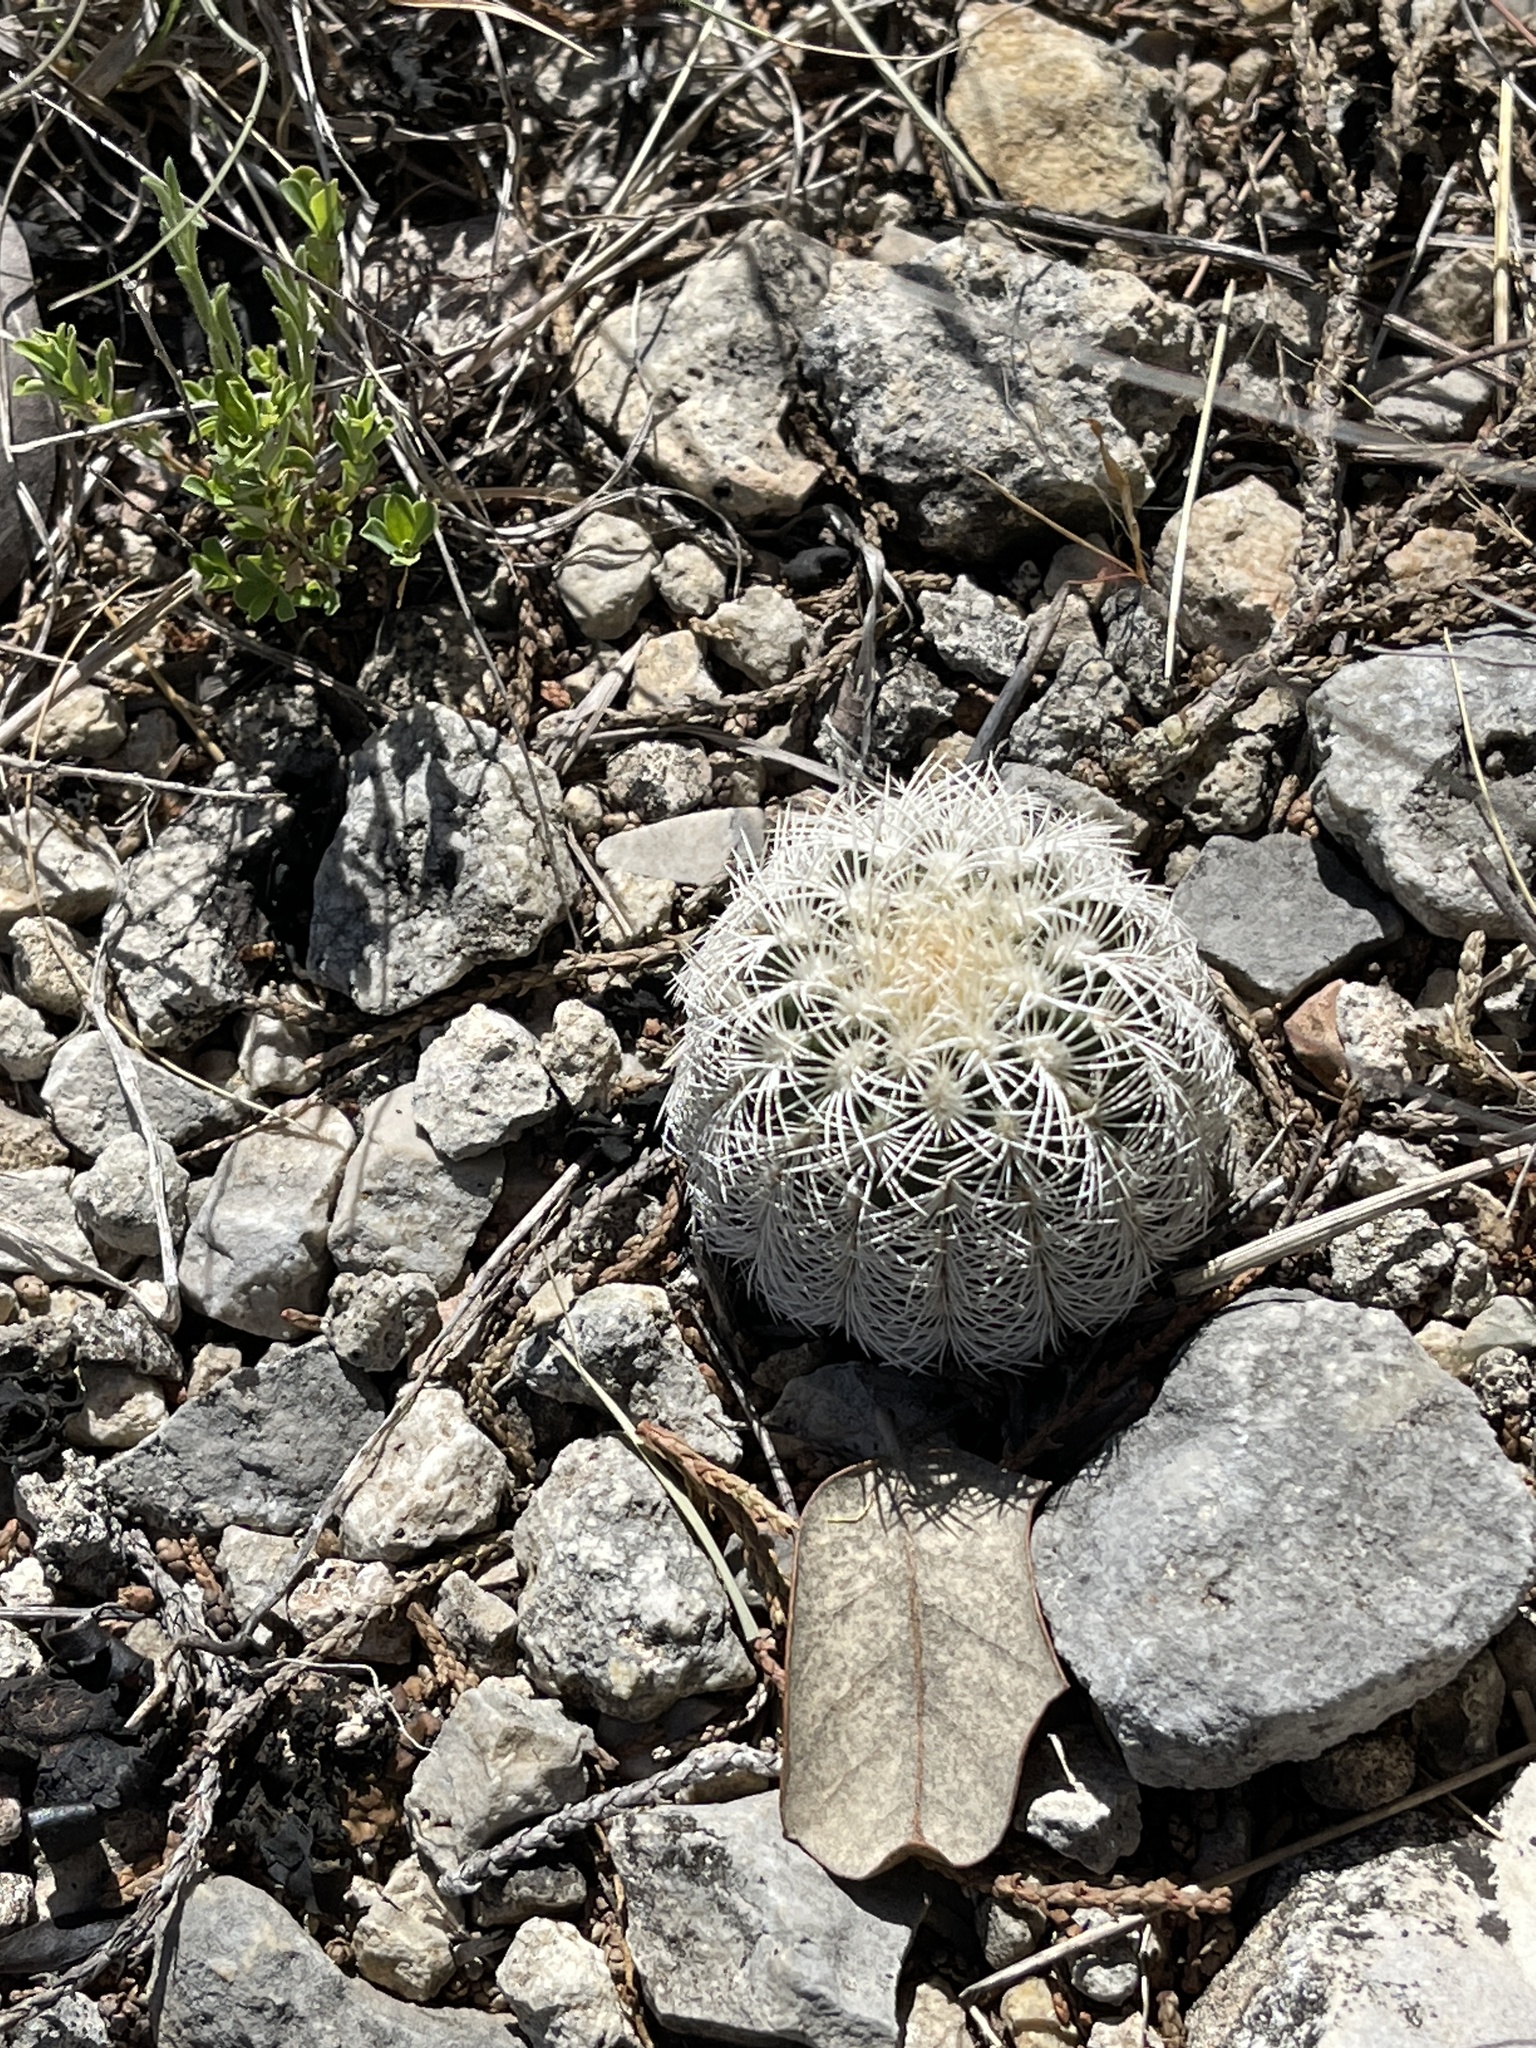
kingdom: Plantae
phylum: Tracheophyta
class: Magnoliopsida
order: Caryophyllales
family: Cactaceae
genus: Echinocereus
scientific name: Echinocereus reichenbachii
